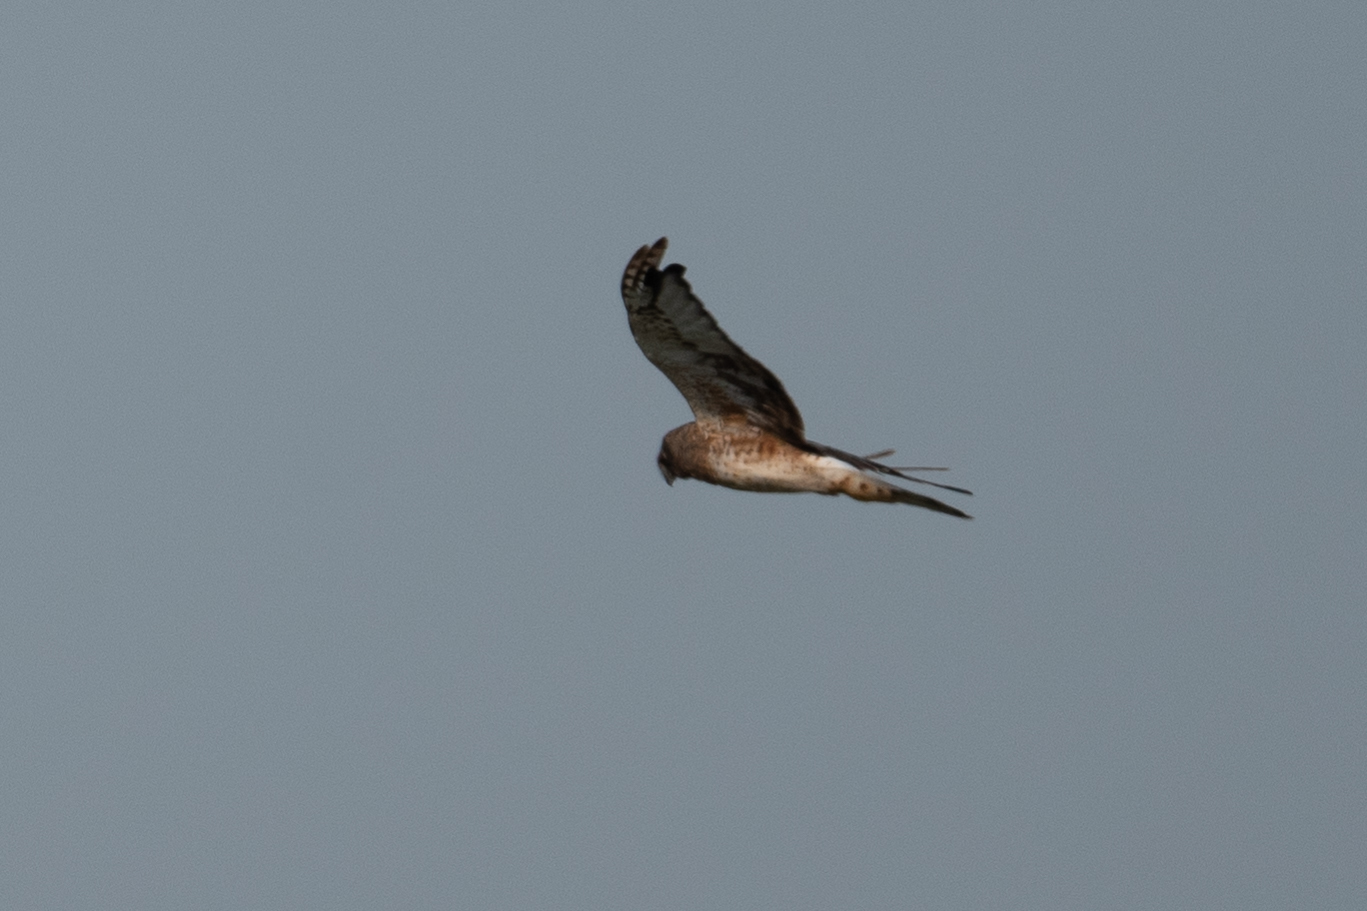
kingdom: Animalia
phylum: Chordata
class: Aves
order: Accipitriformes
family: Accipitridae
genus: Circus
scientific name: Circus cyaneus
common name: Hen harrier
